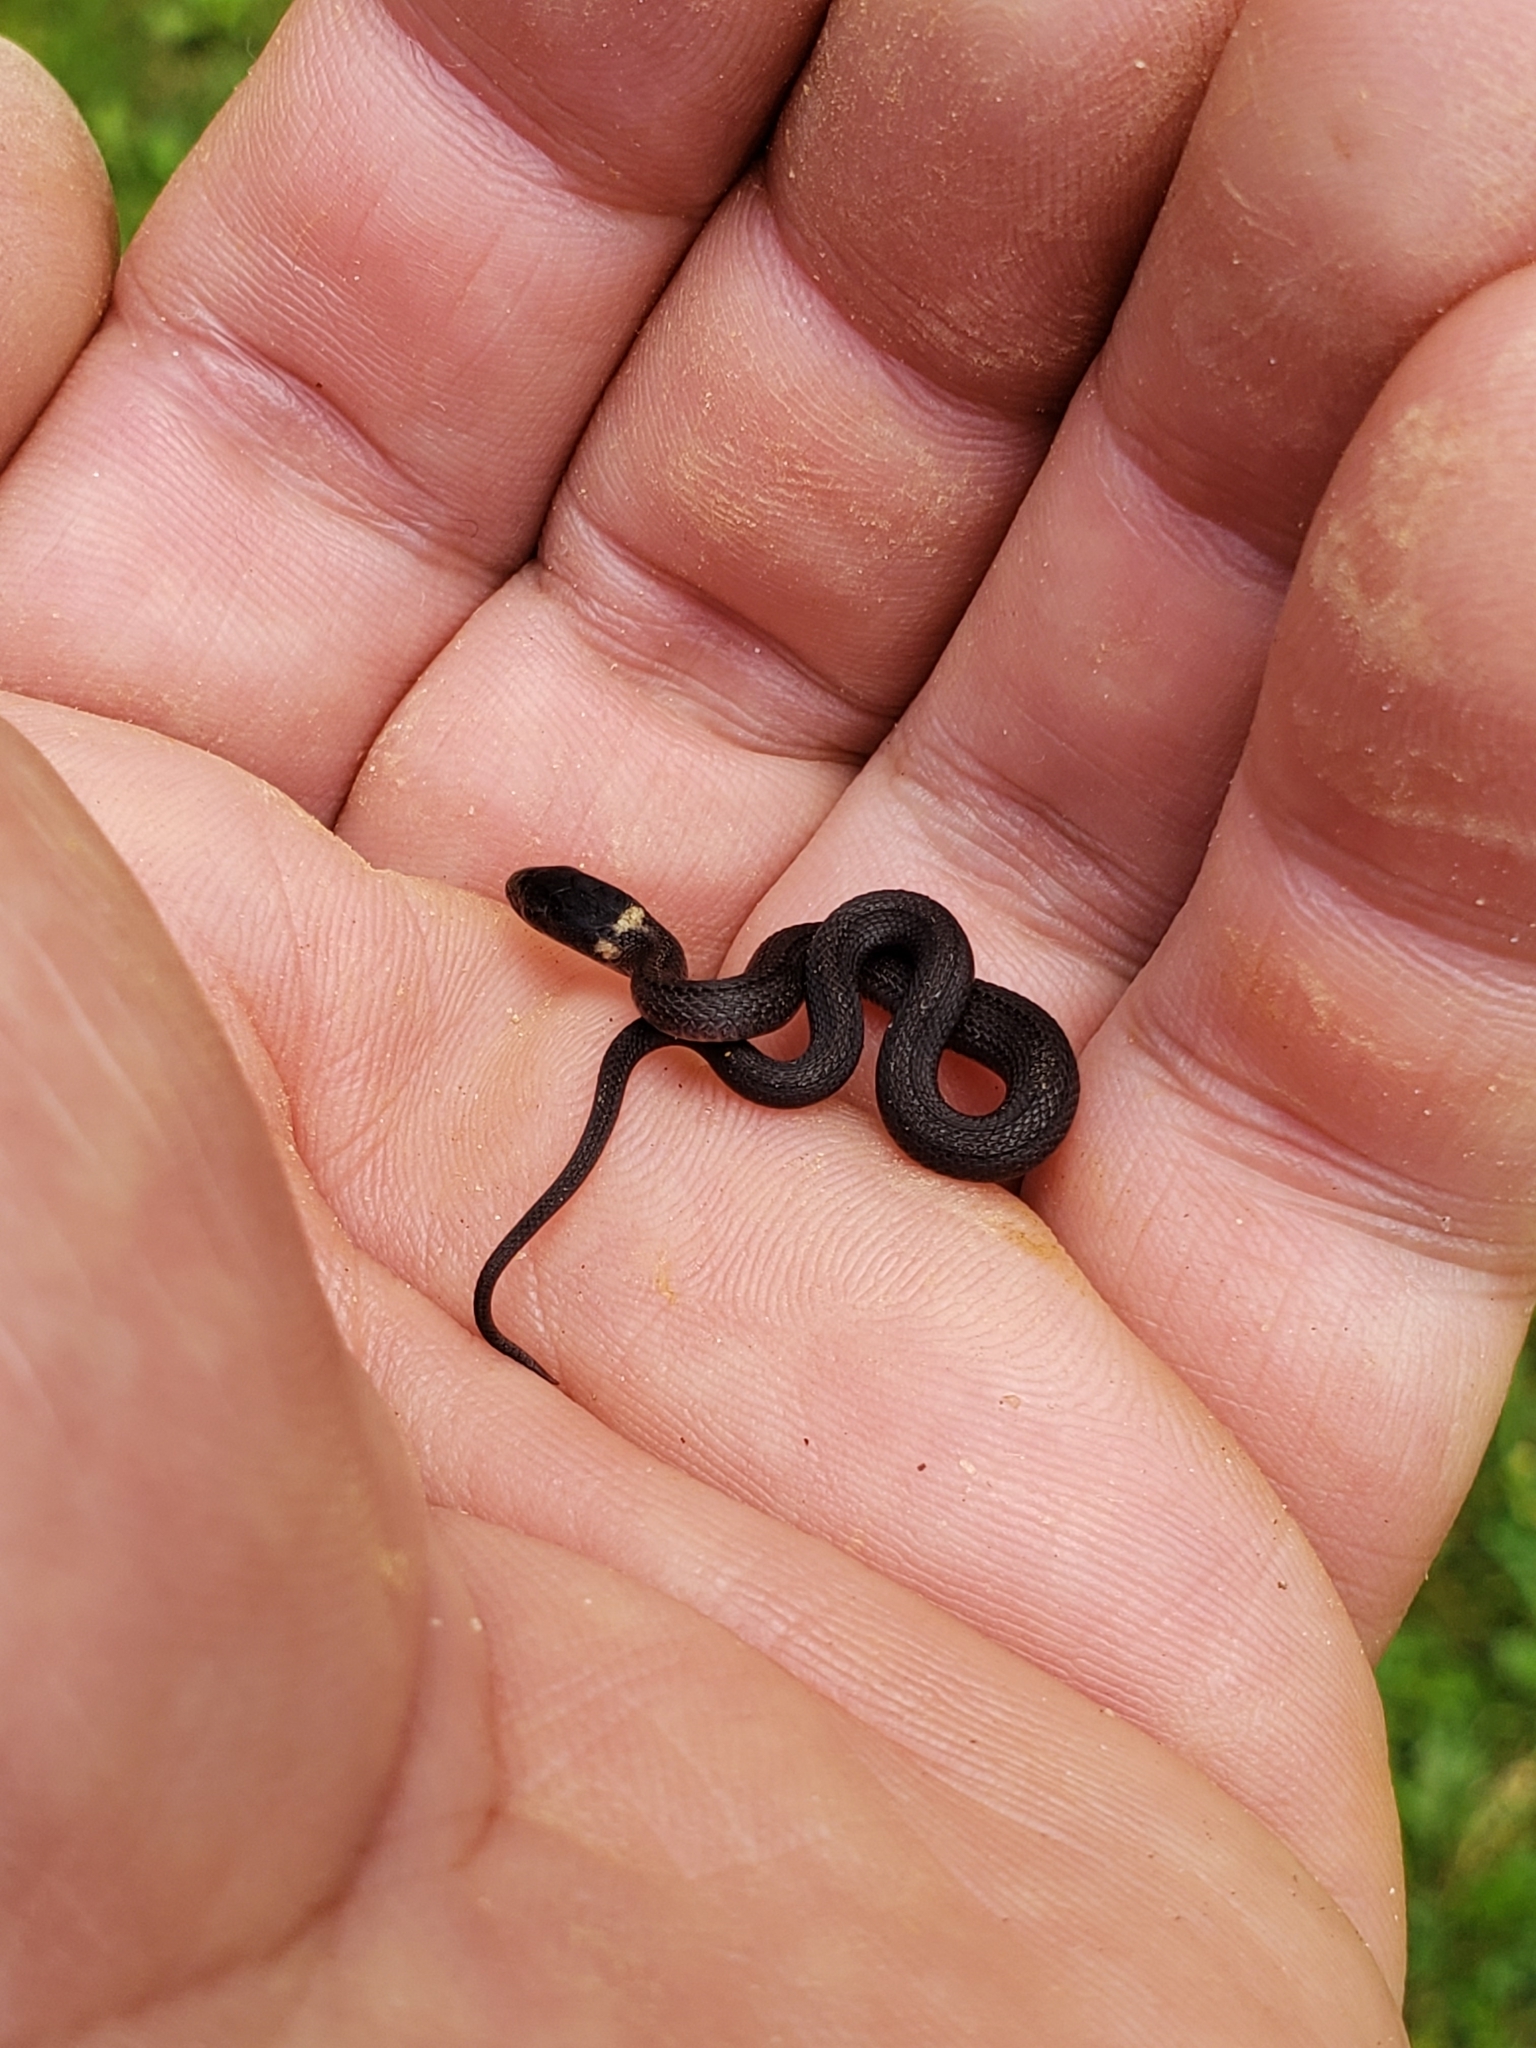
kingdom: Animalia
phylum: Chordata
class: Squamata
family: Colubridae
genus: Storeria
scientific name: Storeria occipitomaculata
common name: Redbelly snake
